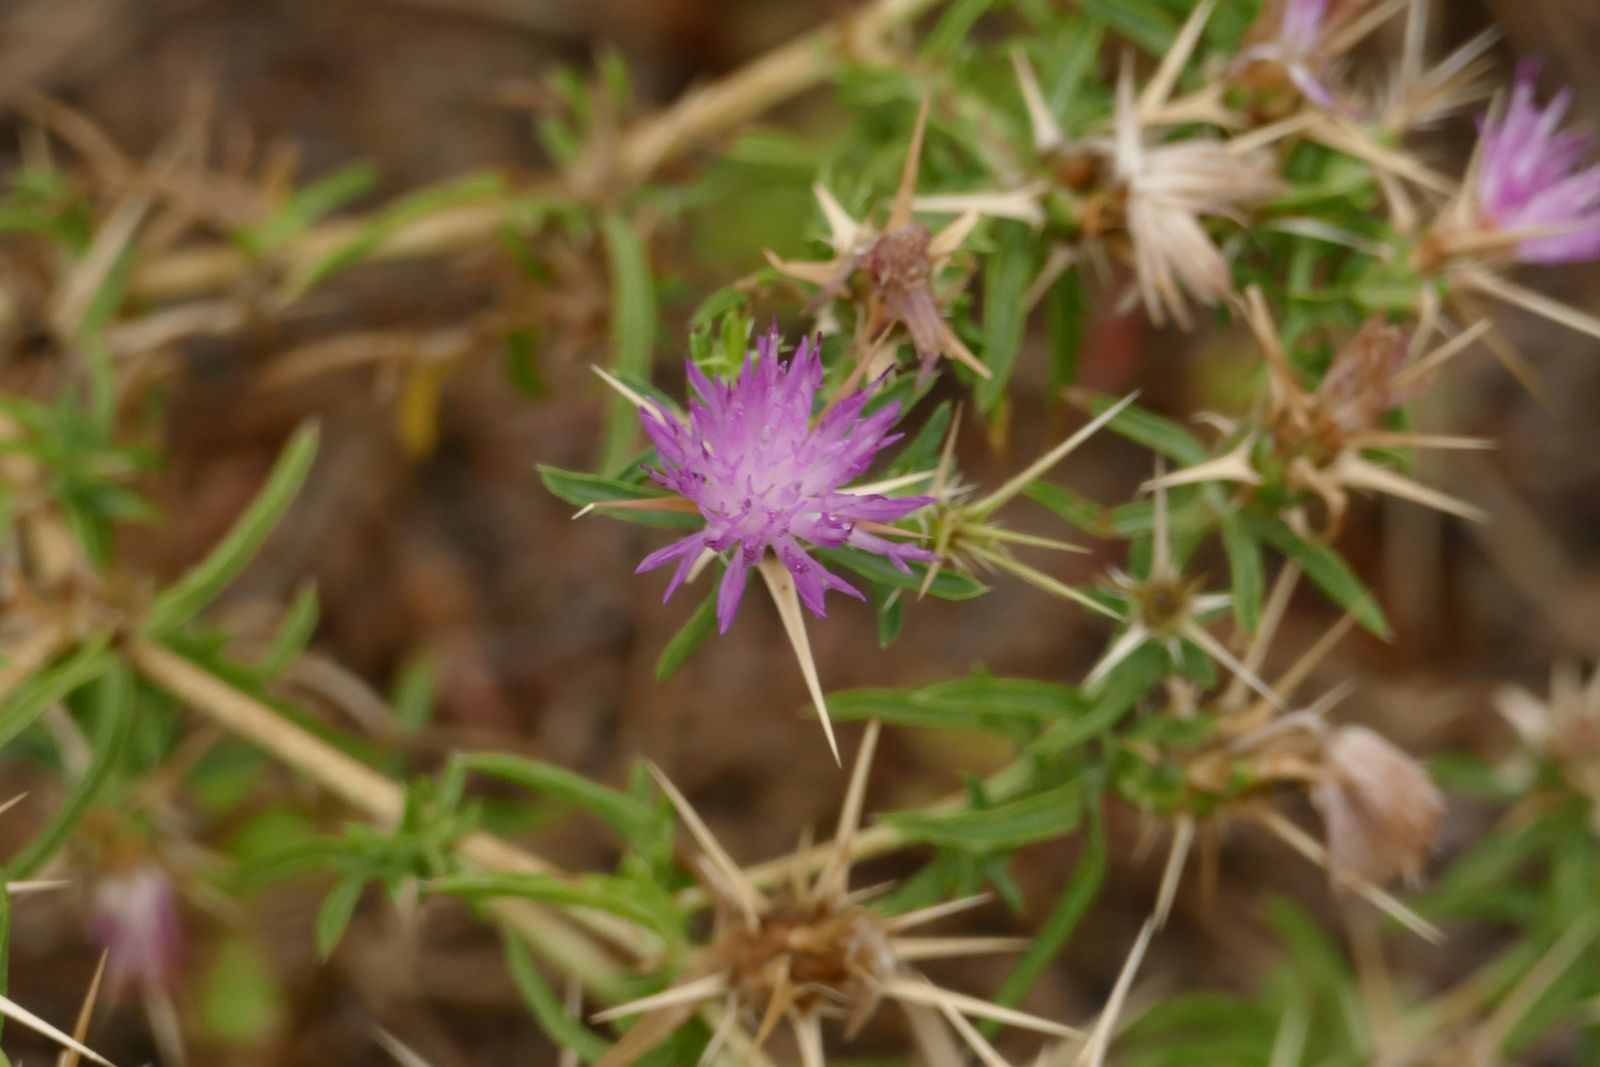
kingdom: Plantae
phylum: Tracheophyta
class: Magnoliopsida
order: Asterales
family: Asteraceae
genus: Centaurea
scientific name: Centaurea calcitrapa
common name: Red star-thistle
